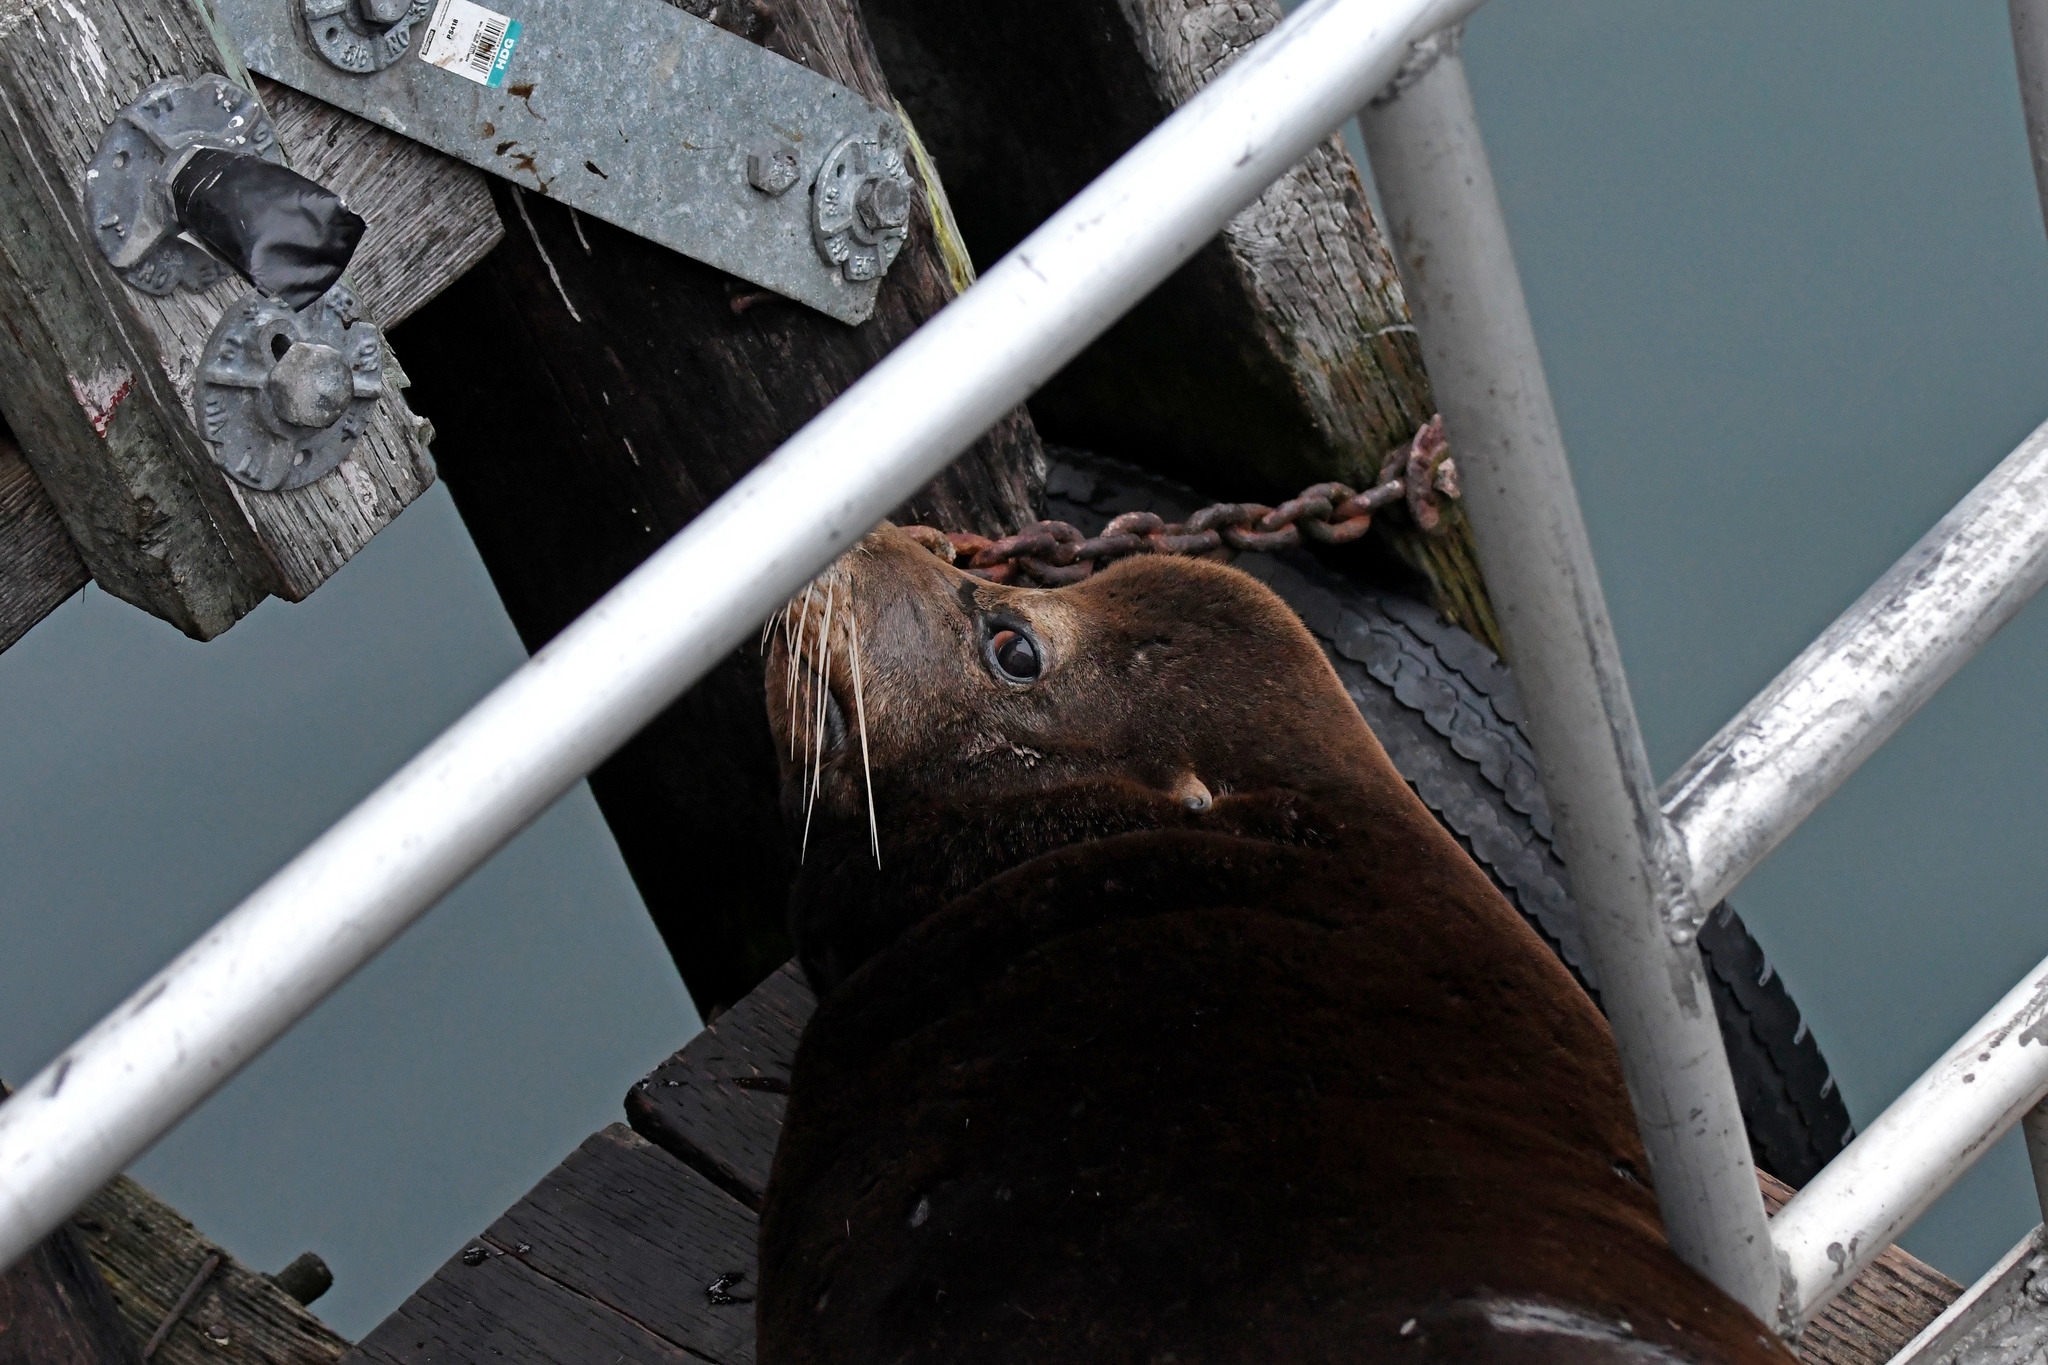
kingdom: Animalia
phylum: Chordata
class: Mammalia
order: Carnivora
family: Otariidae
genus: Zalophus
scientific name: Zalophus californianus
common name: California sea lion
